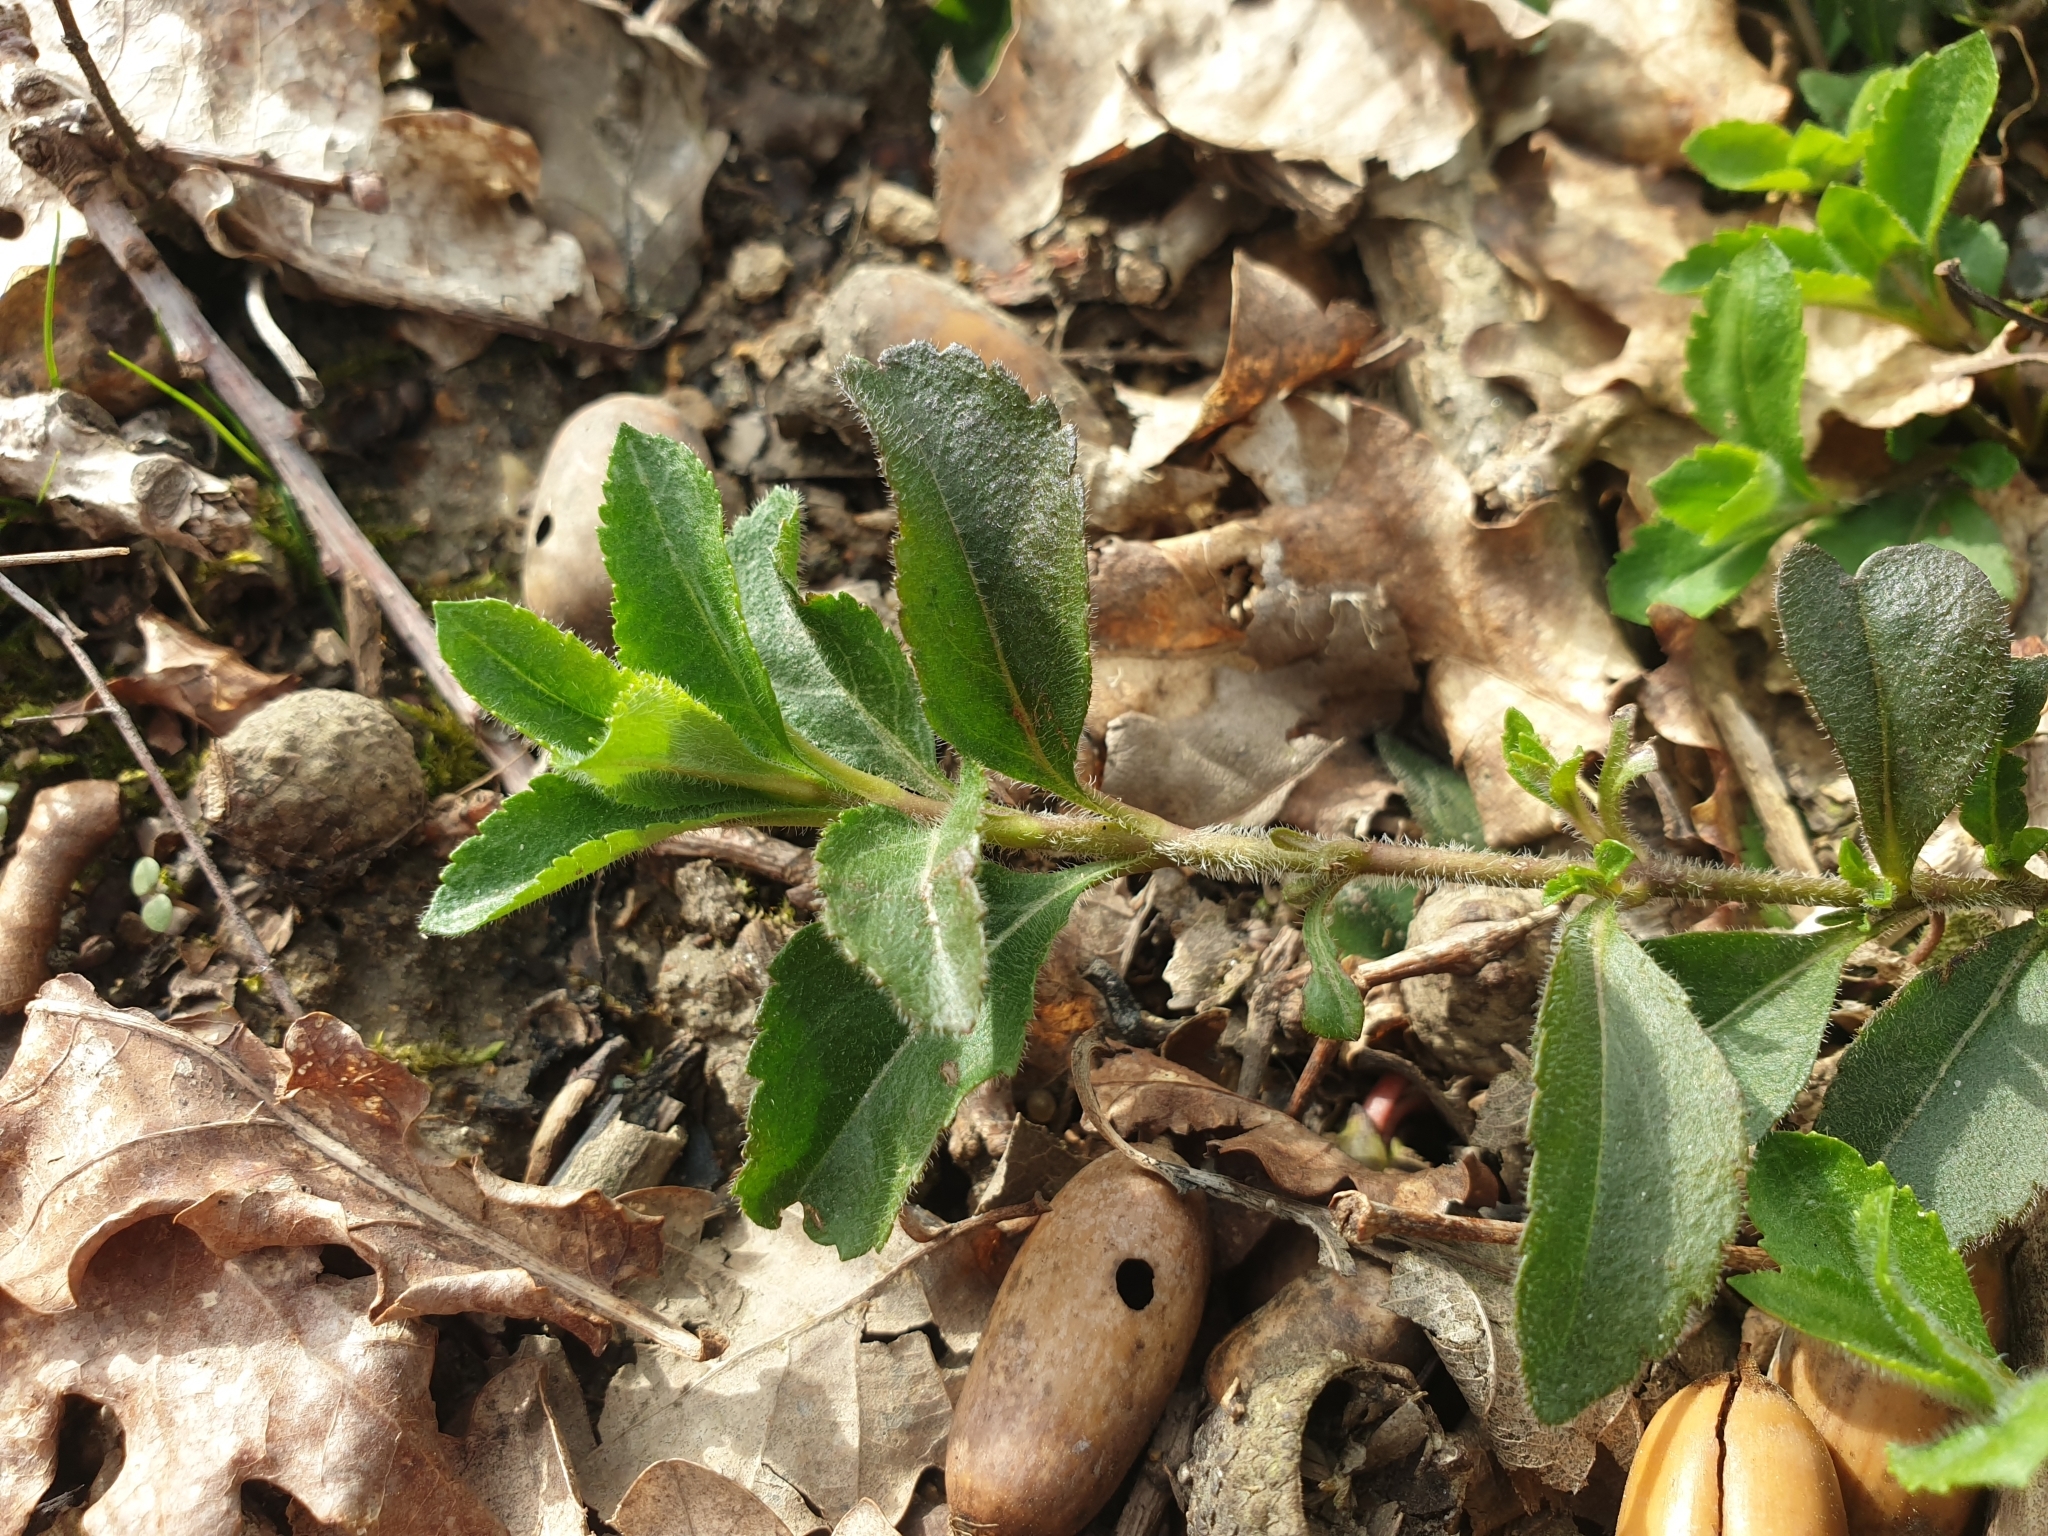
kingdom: Plantae
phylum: Tracheophyta
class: Magnoliopsida
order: Lamiales
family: Plantaginaceae
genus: Veronica
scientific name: Veronica officinalis
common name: Common speedwell
